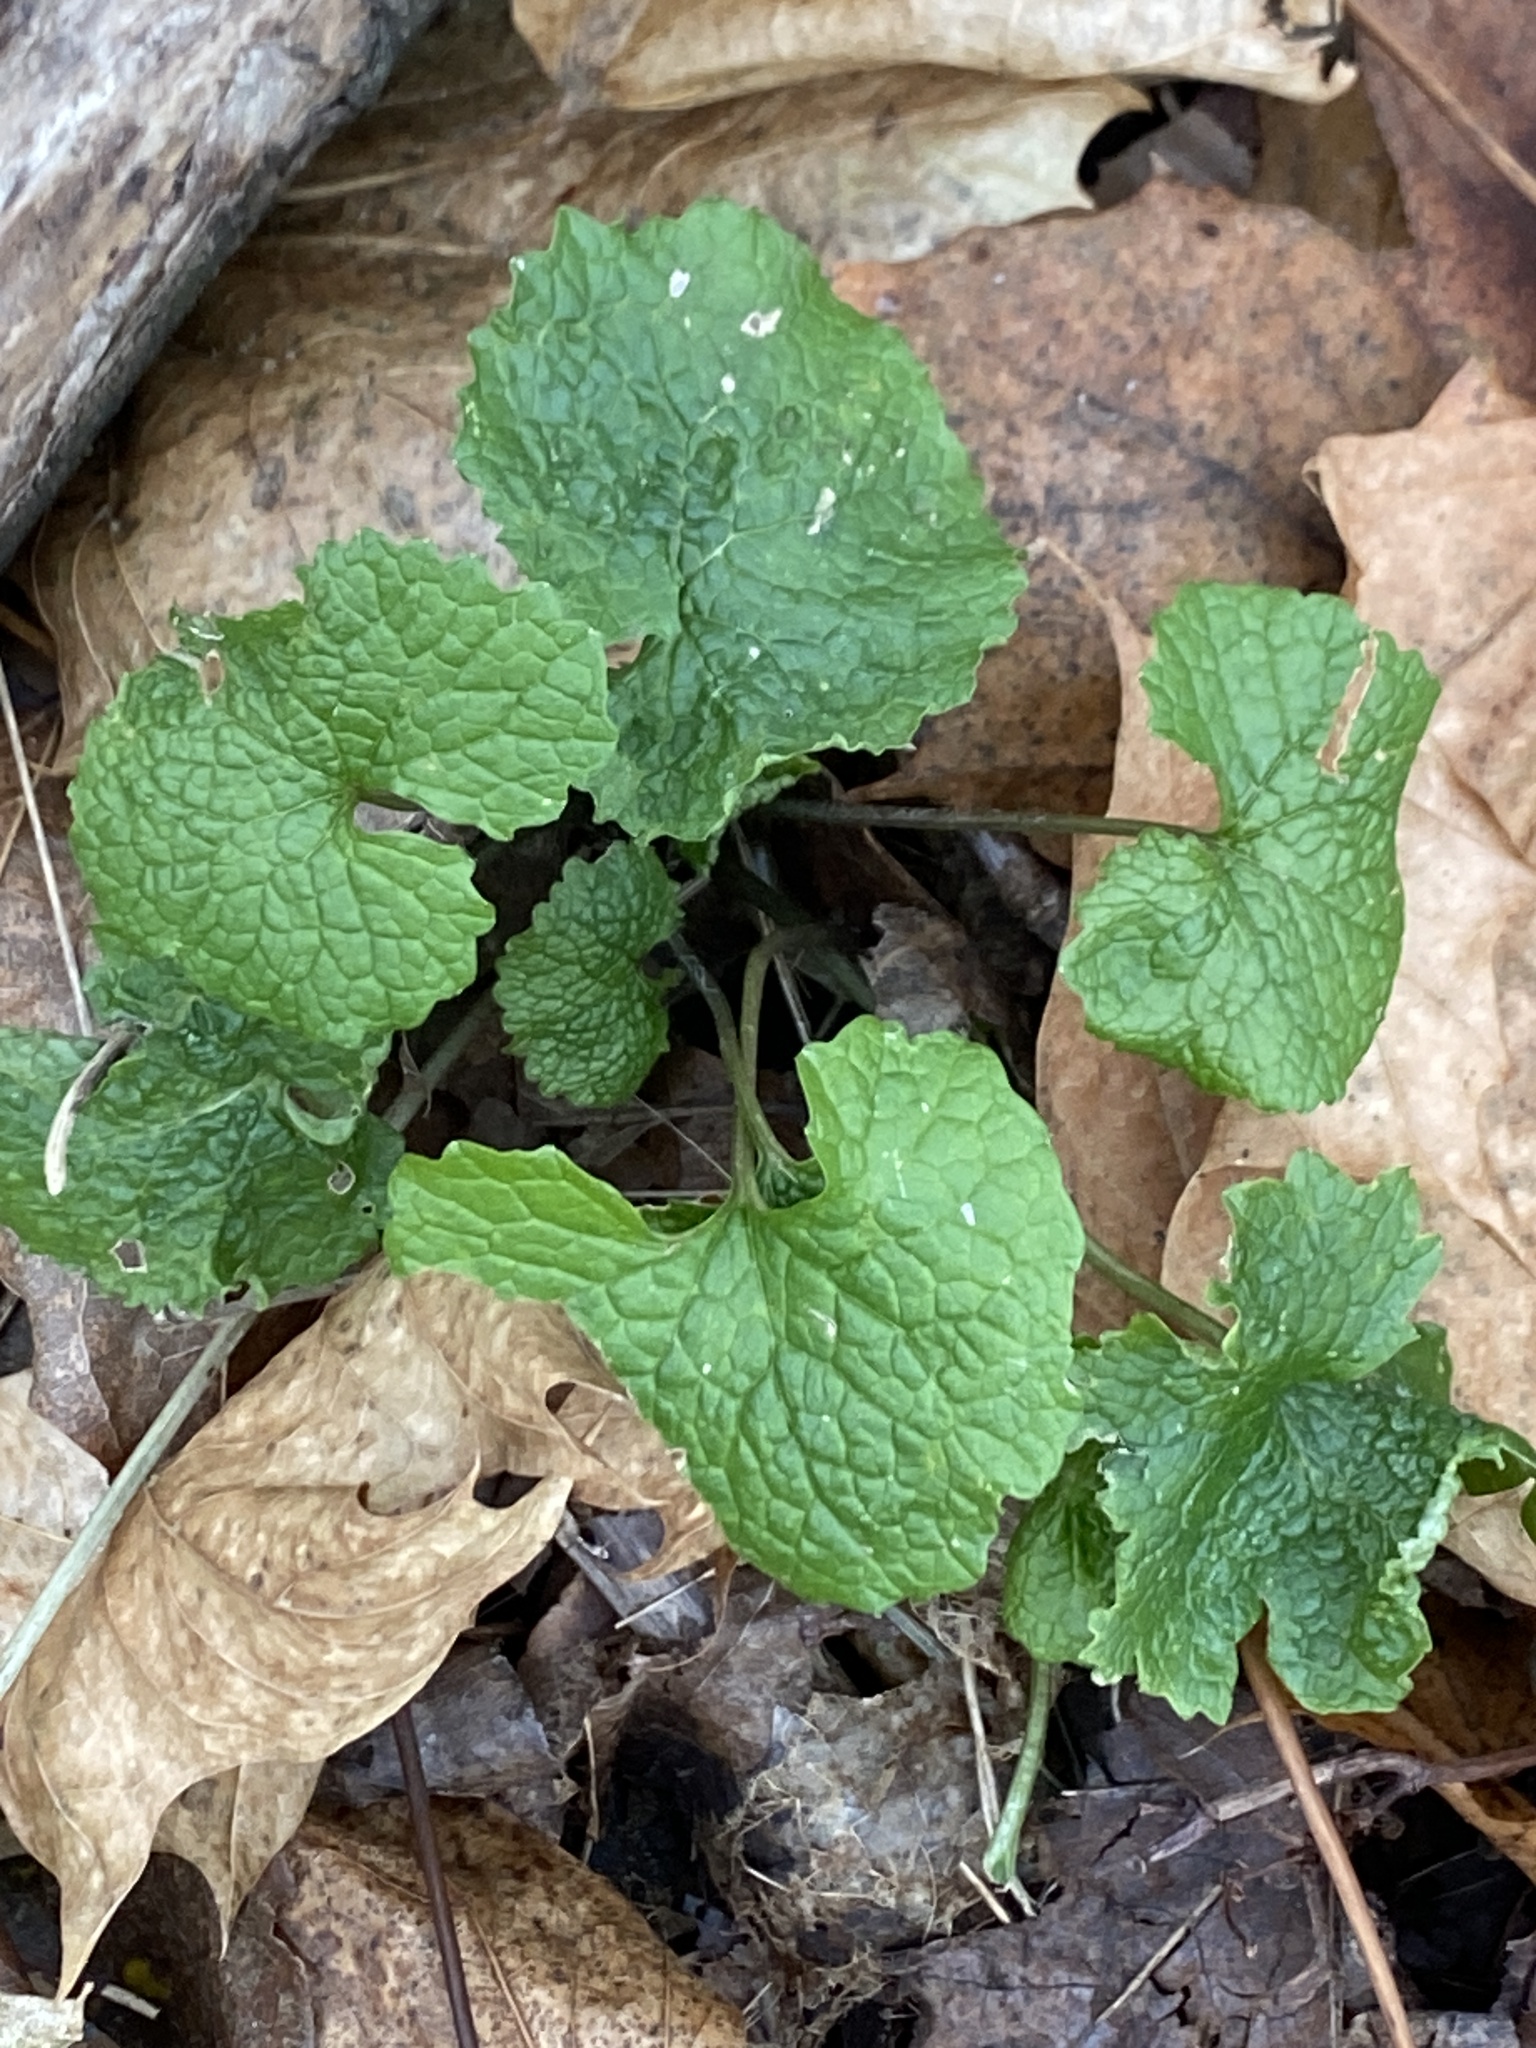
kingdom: Plantae
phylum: Tracheophyta
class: Magnoliopsida
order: Brassicales
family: Brassicaceae
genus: Alliaria
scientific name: Alliaria petiolata
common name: Garlic mustard
